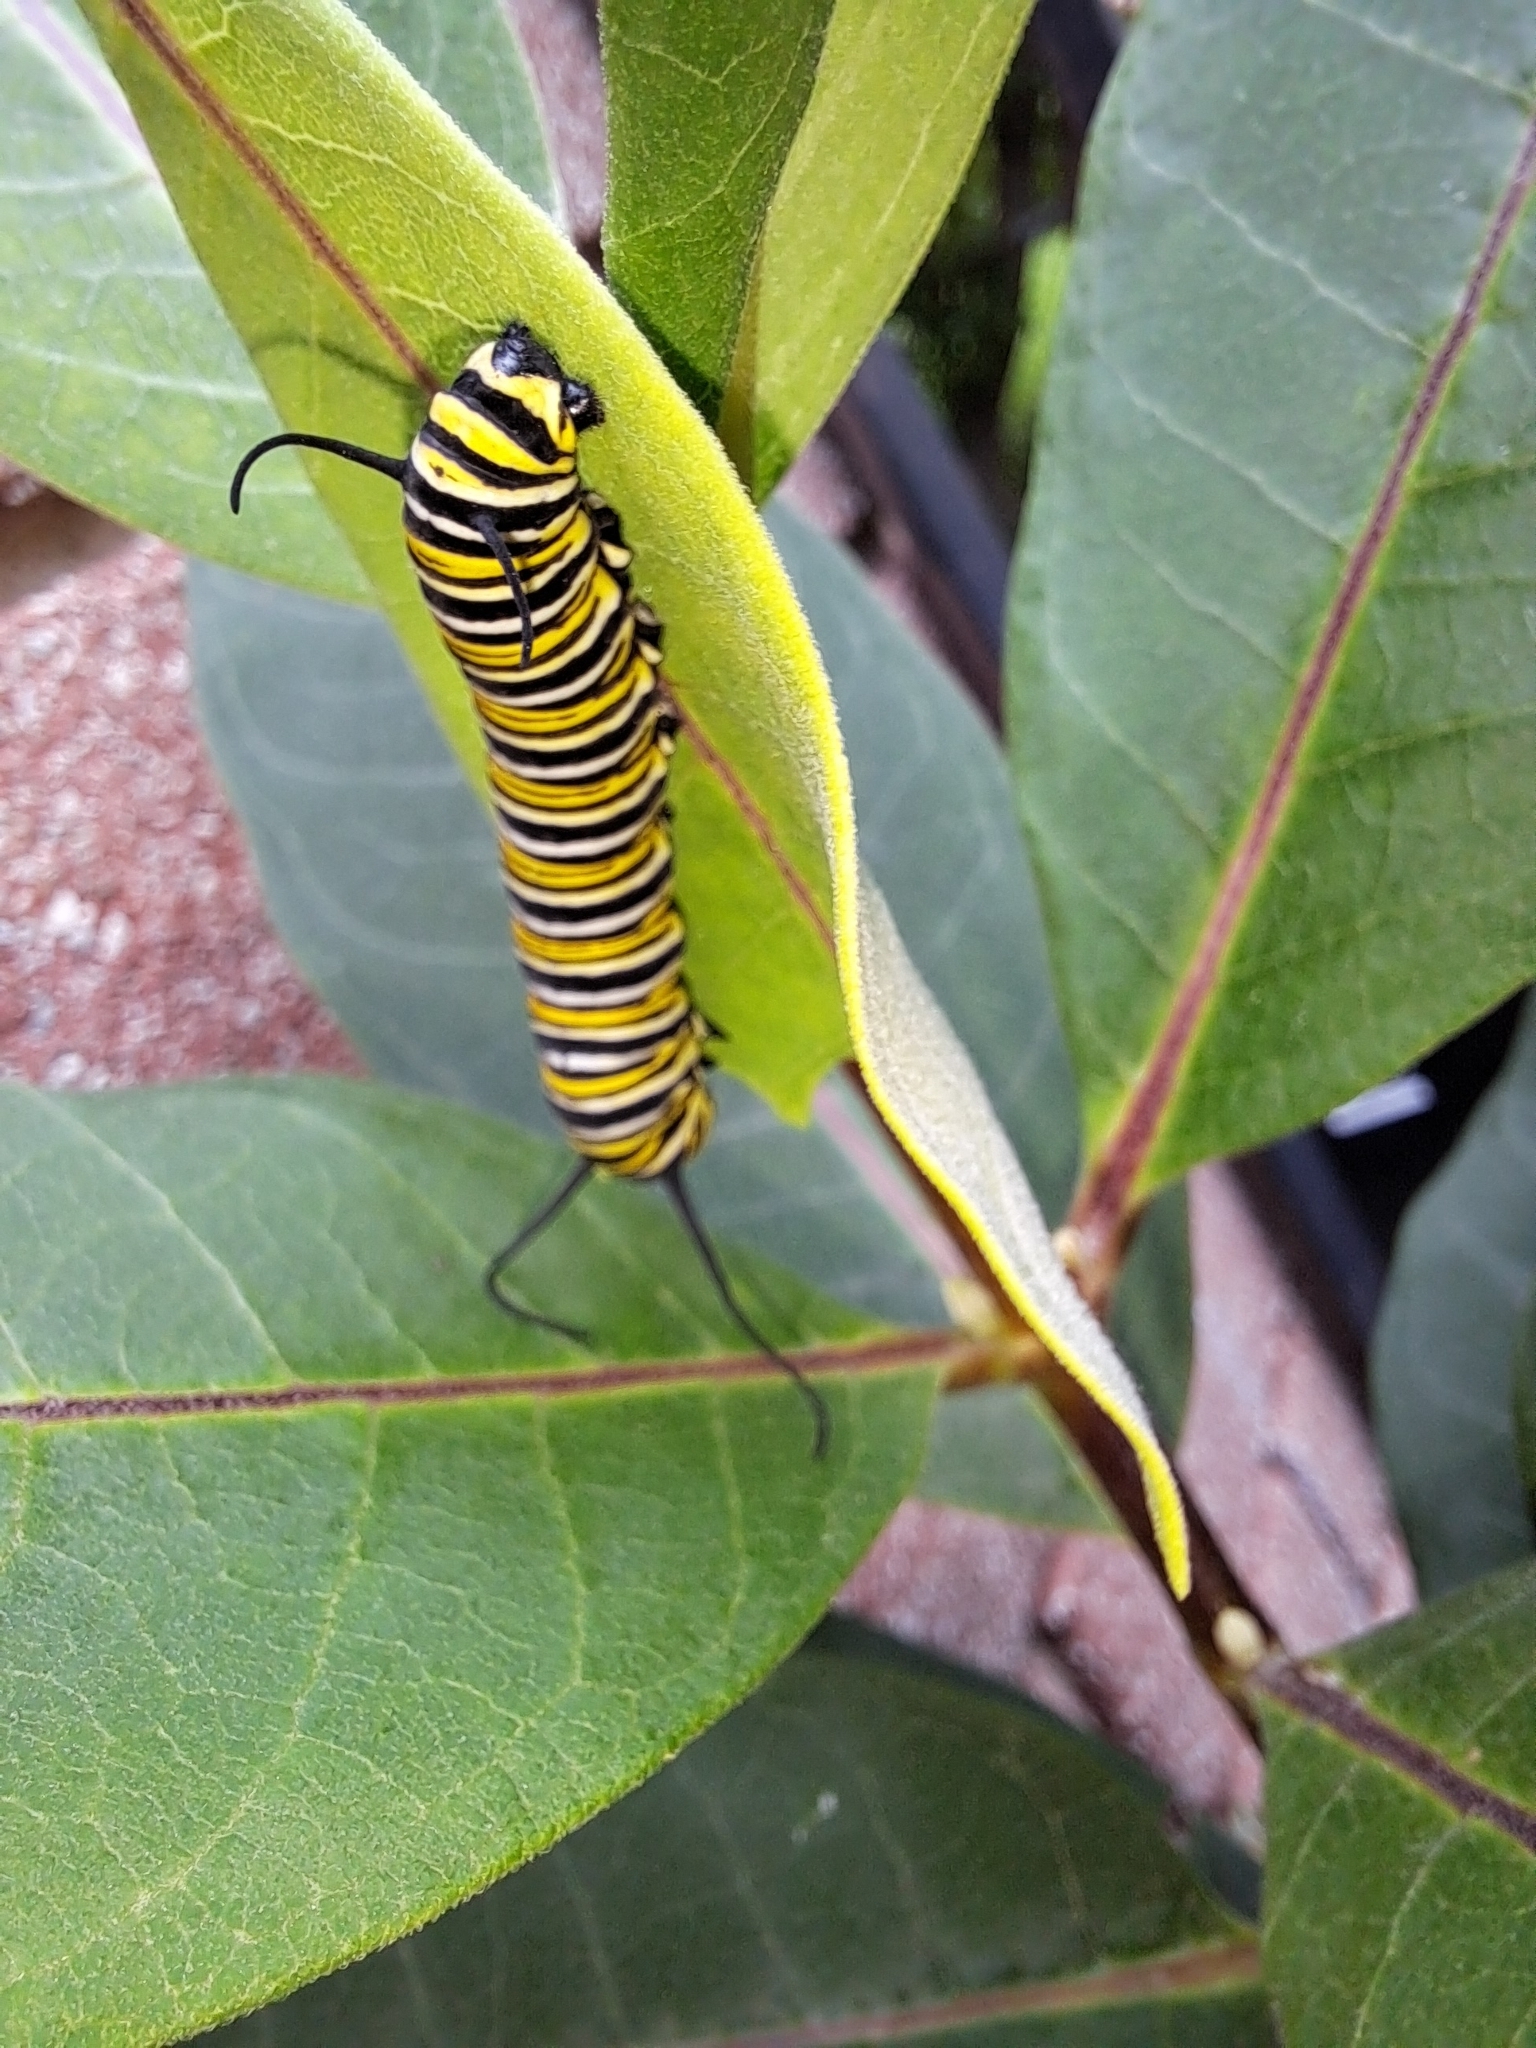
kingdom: Animalia
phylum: Arthropoda
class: Insecta
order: Lepidoptera
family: Nymphalidae
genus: Danaus
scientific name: Danaus plexippus
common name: Monarch
